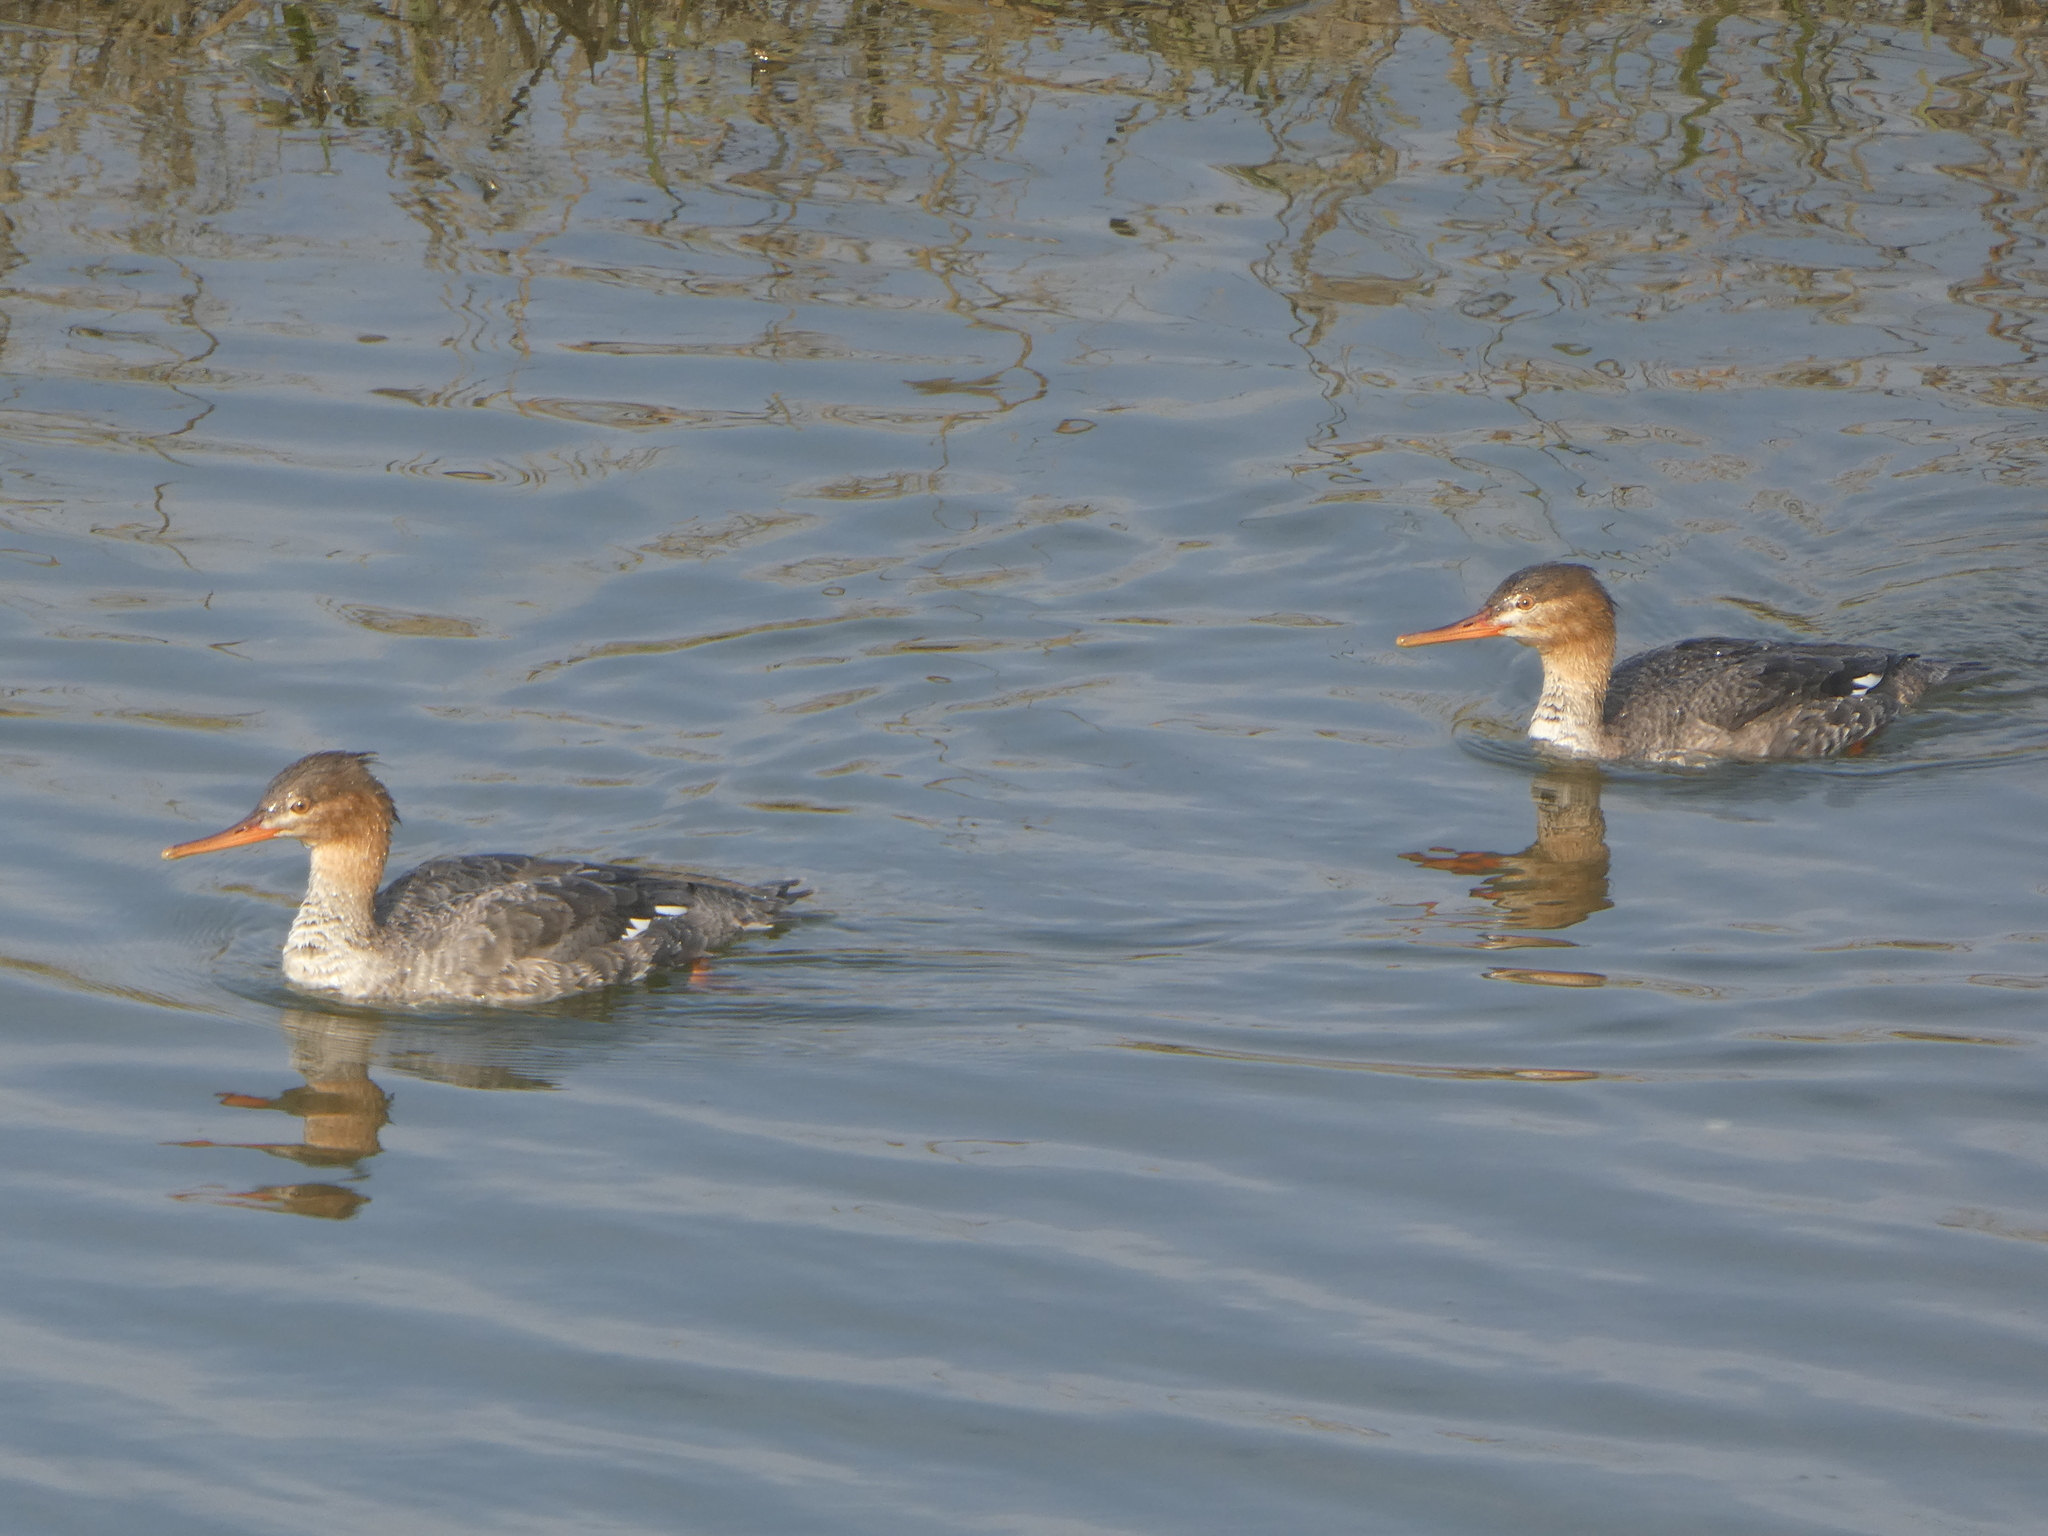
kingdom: Animalia
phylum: Chordata
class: Aves
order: Anseriformes
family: Anatidae
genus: Mergus
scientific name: Mergus serrator
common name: Red-breasted merganser
